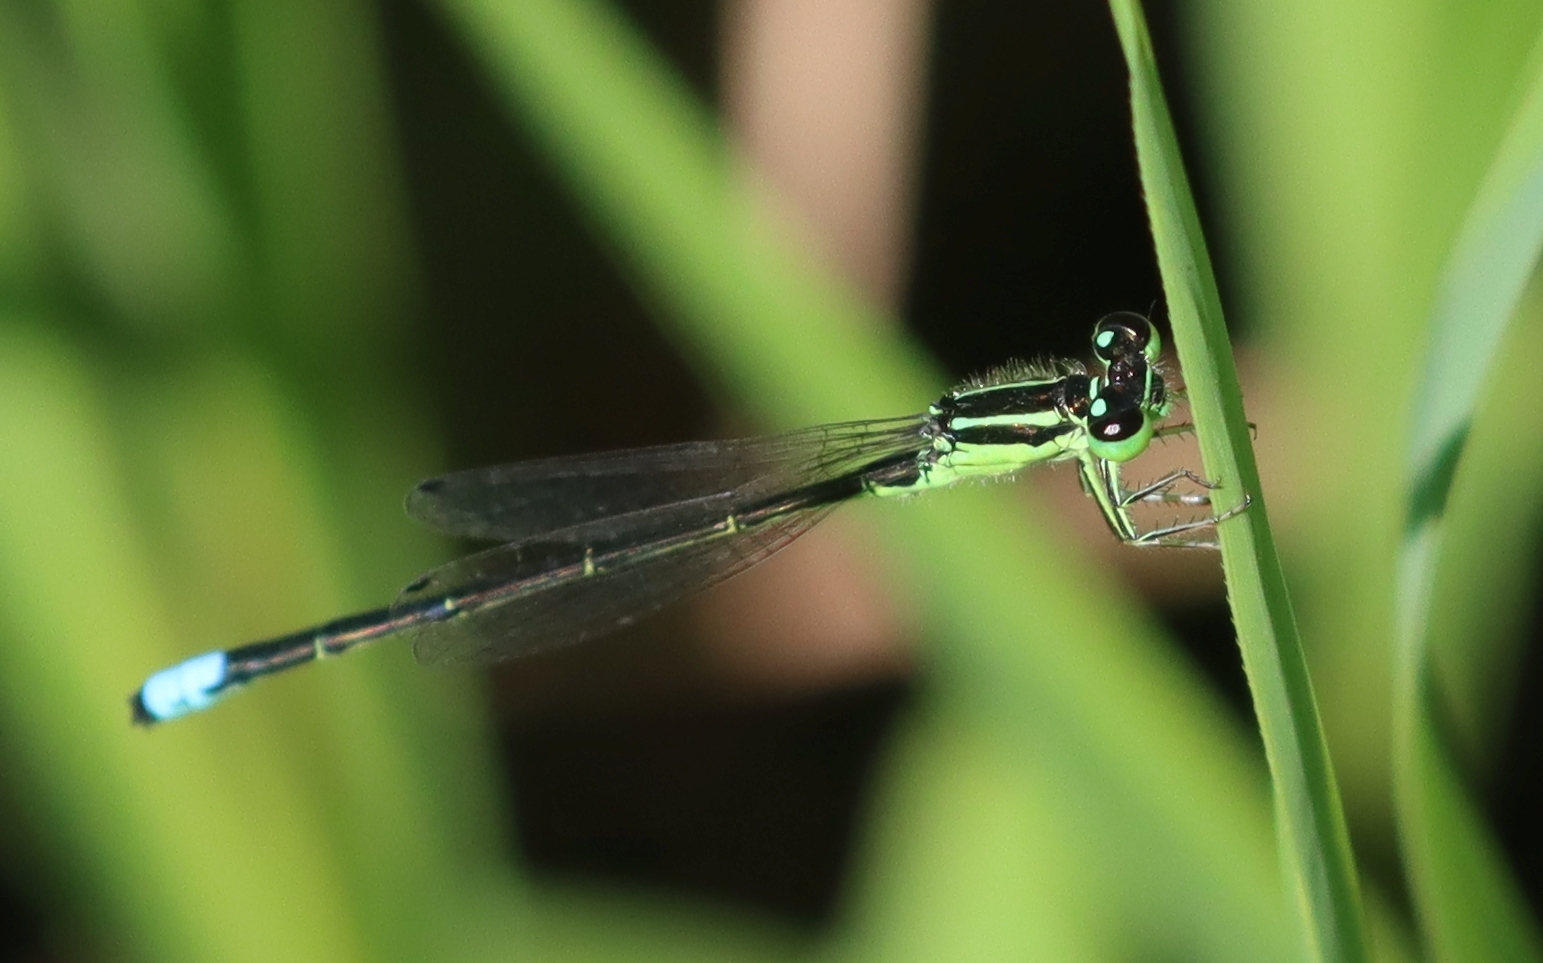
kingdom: Animalia
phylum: Arthropoda
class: Insecta
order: Odonata
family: Coenagrionidae
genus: Ischnura
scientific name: Ischnura verticalis
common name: Eastern forktail
